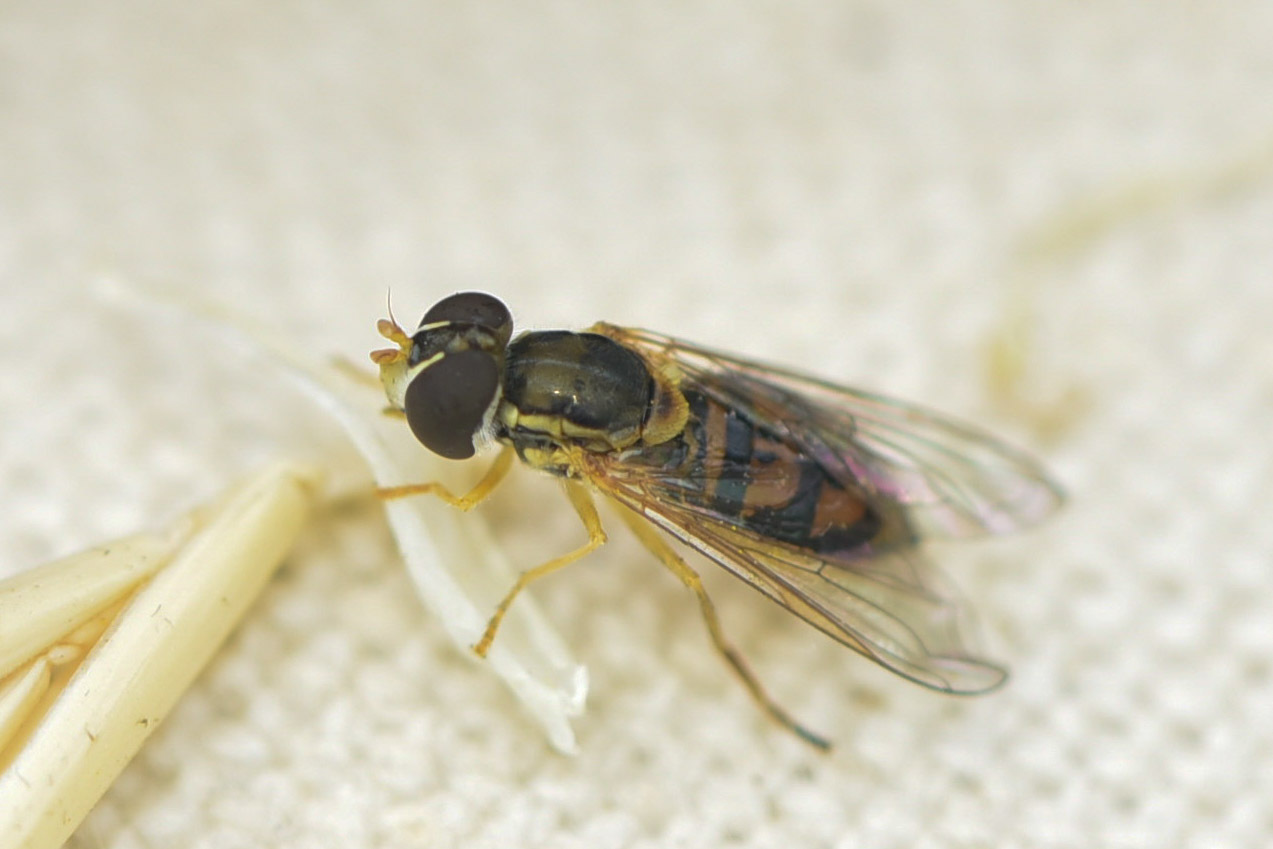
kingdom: Animalia
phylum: Arthropoda
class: Insecta
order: Diptera
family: Syrphidae
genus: Toxomerus
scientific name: Toxomerus marginatus
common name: Syrphid fly
